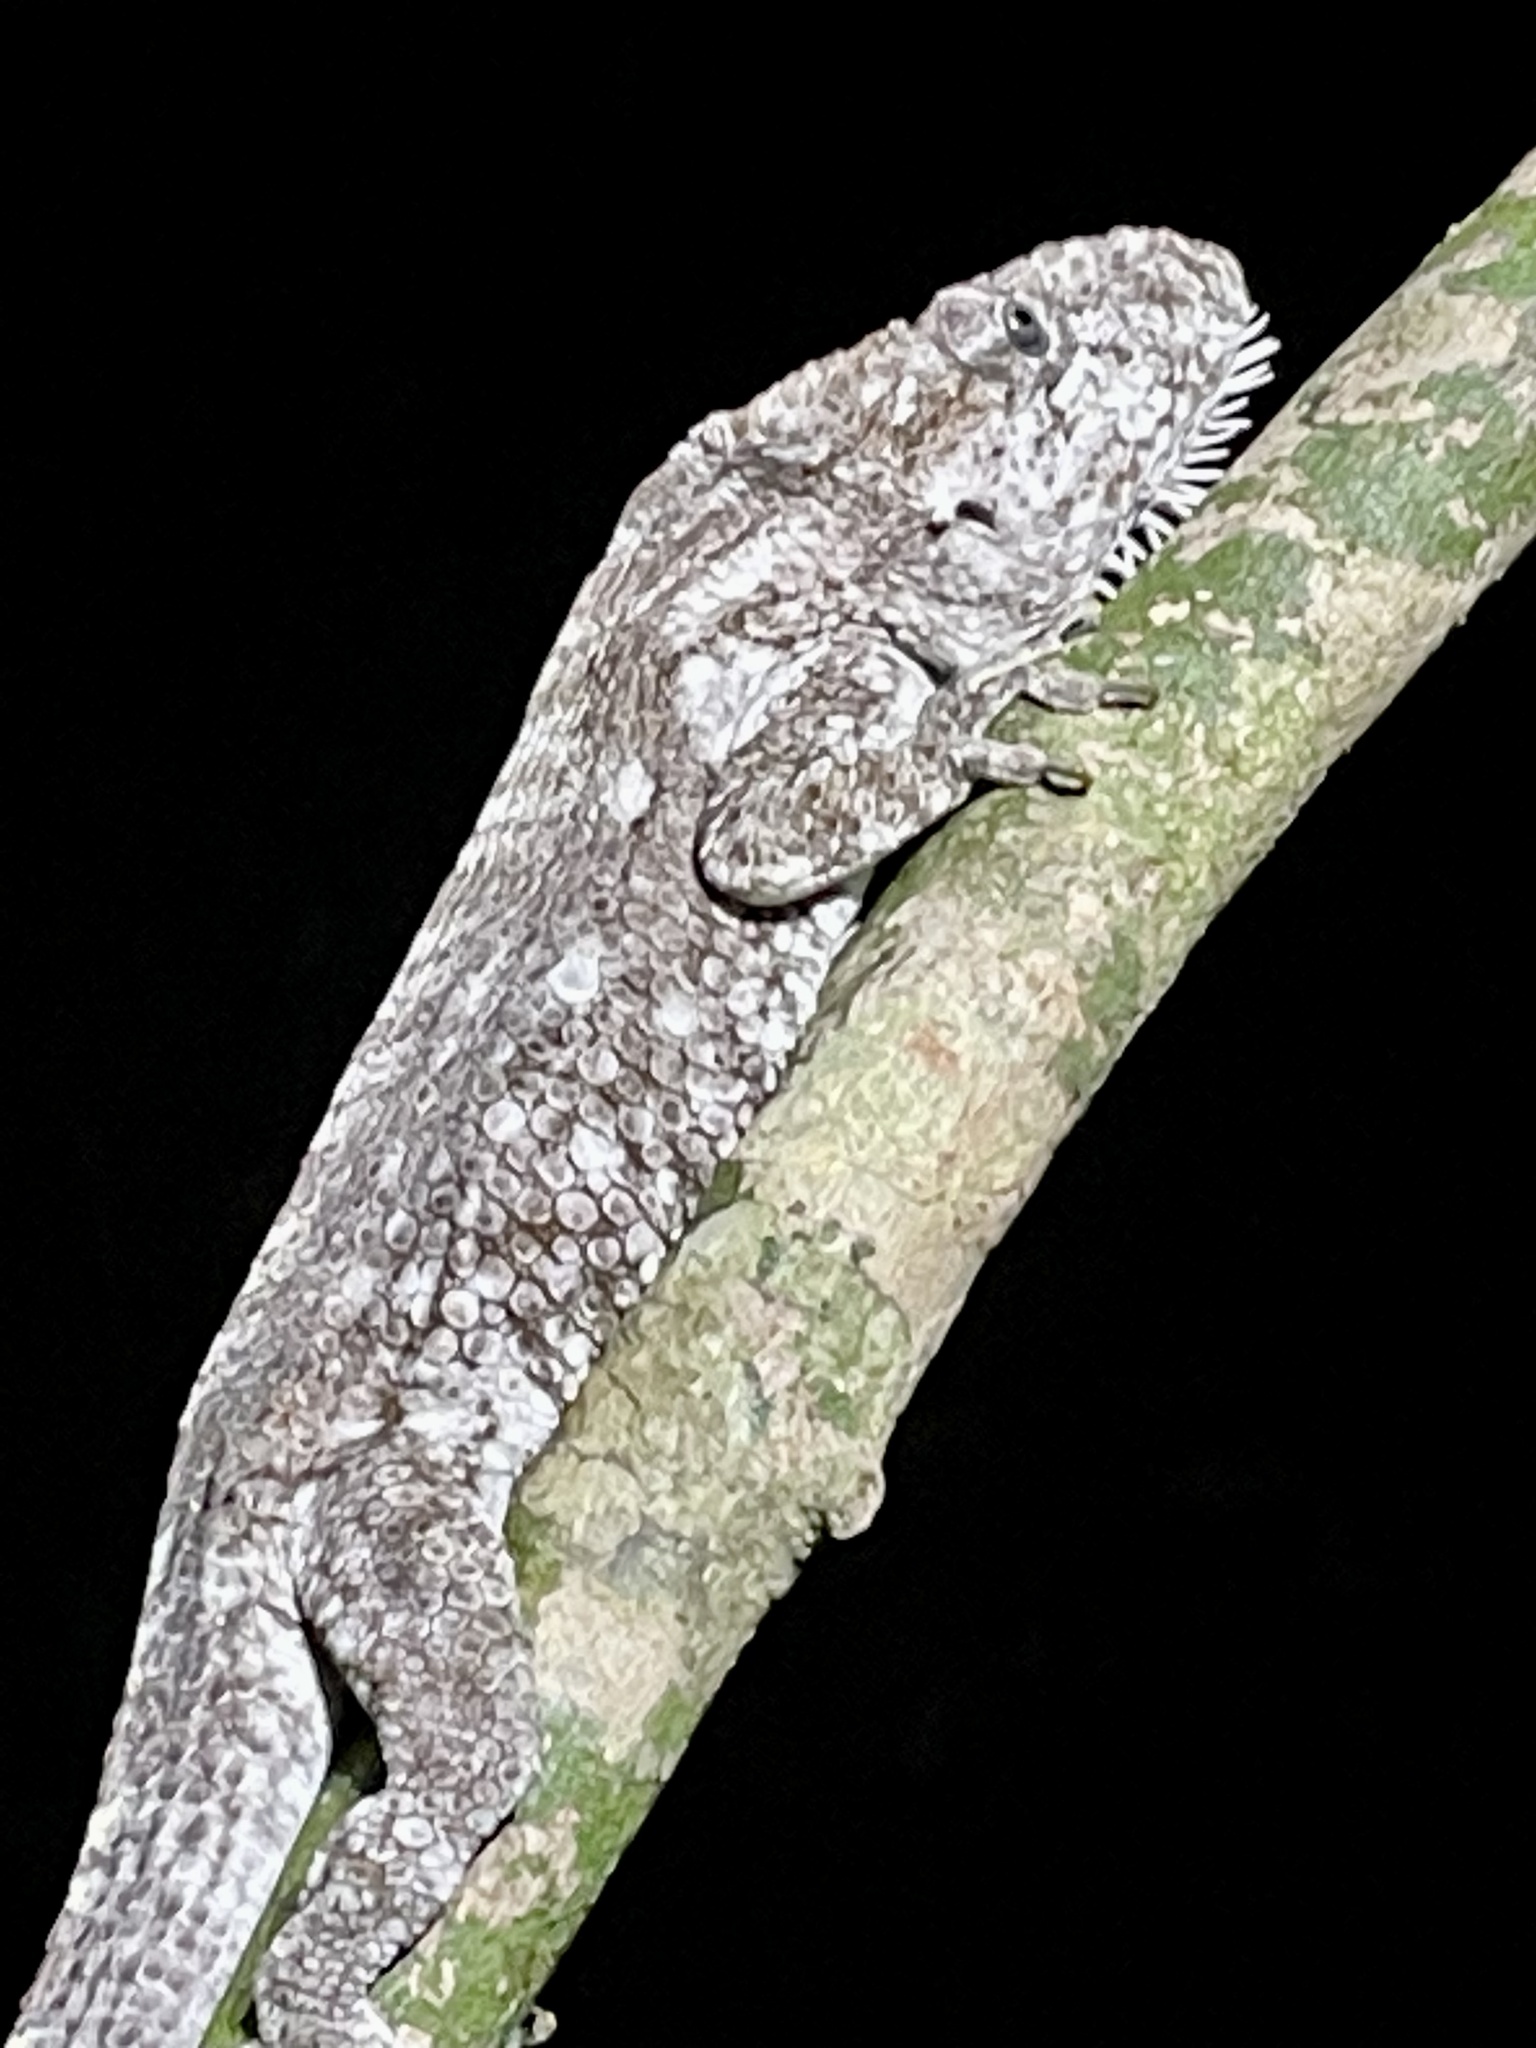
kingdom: Animalia
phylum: Chordata
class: Squamata
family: Dactyloidae
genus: Anolis
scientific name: Anolis barbatus
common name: Western bearded anole
